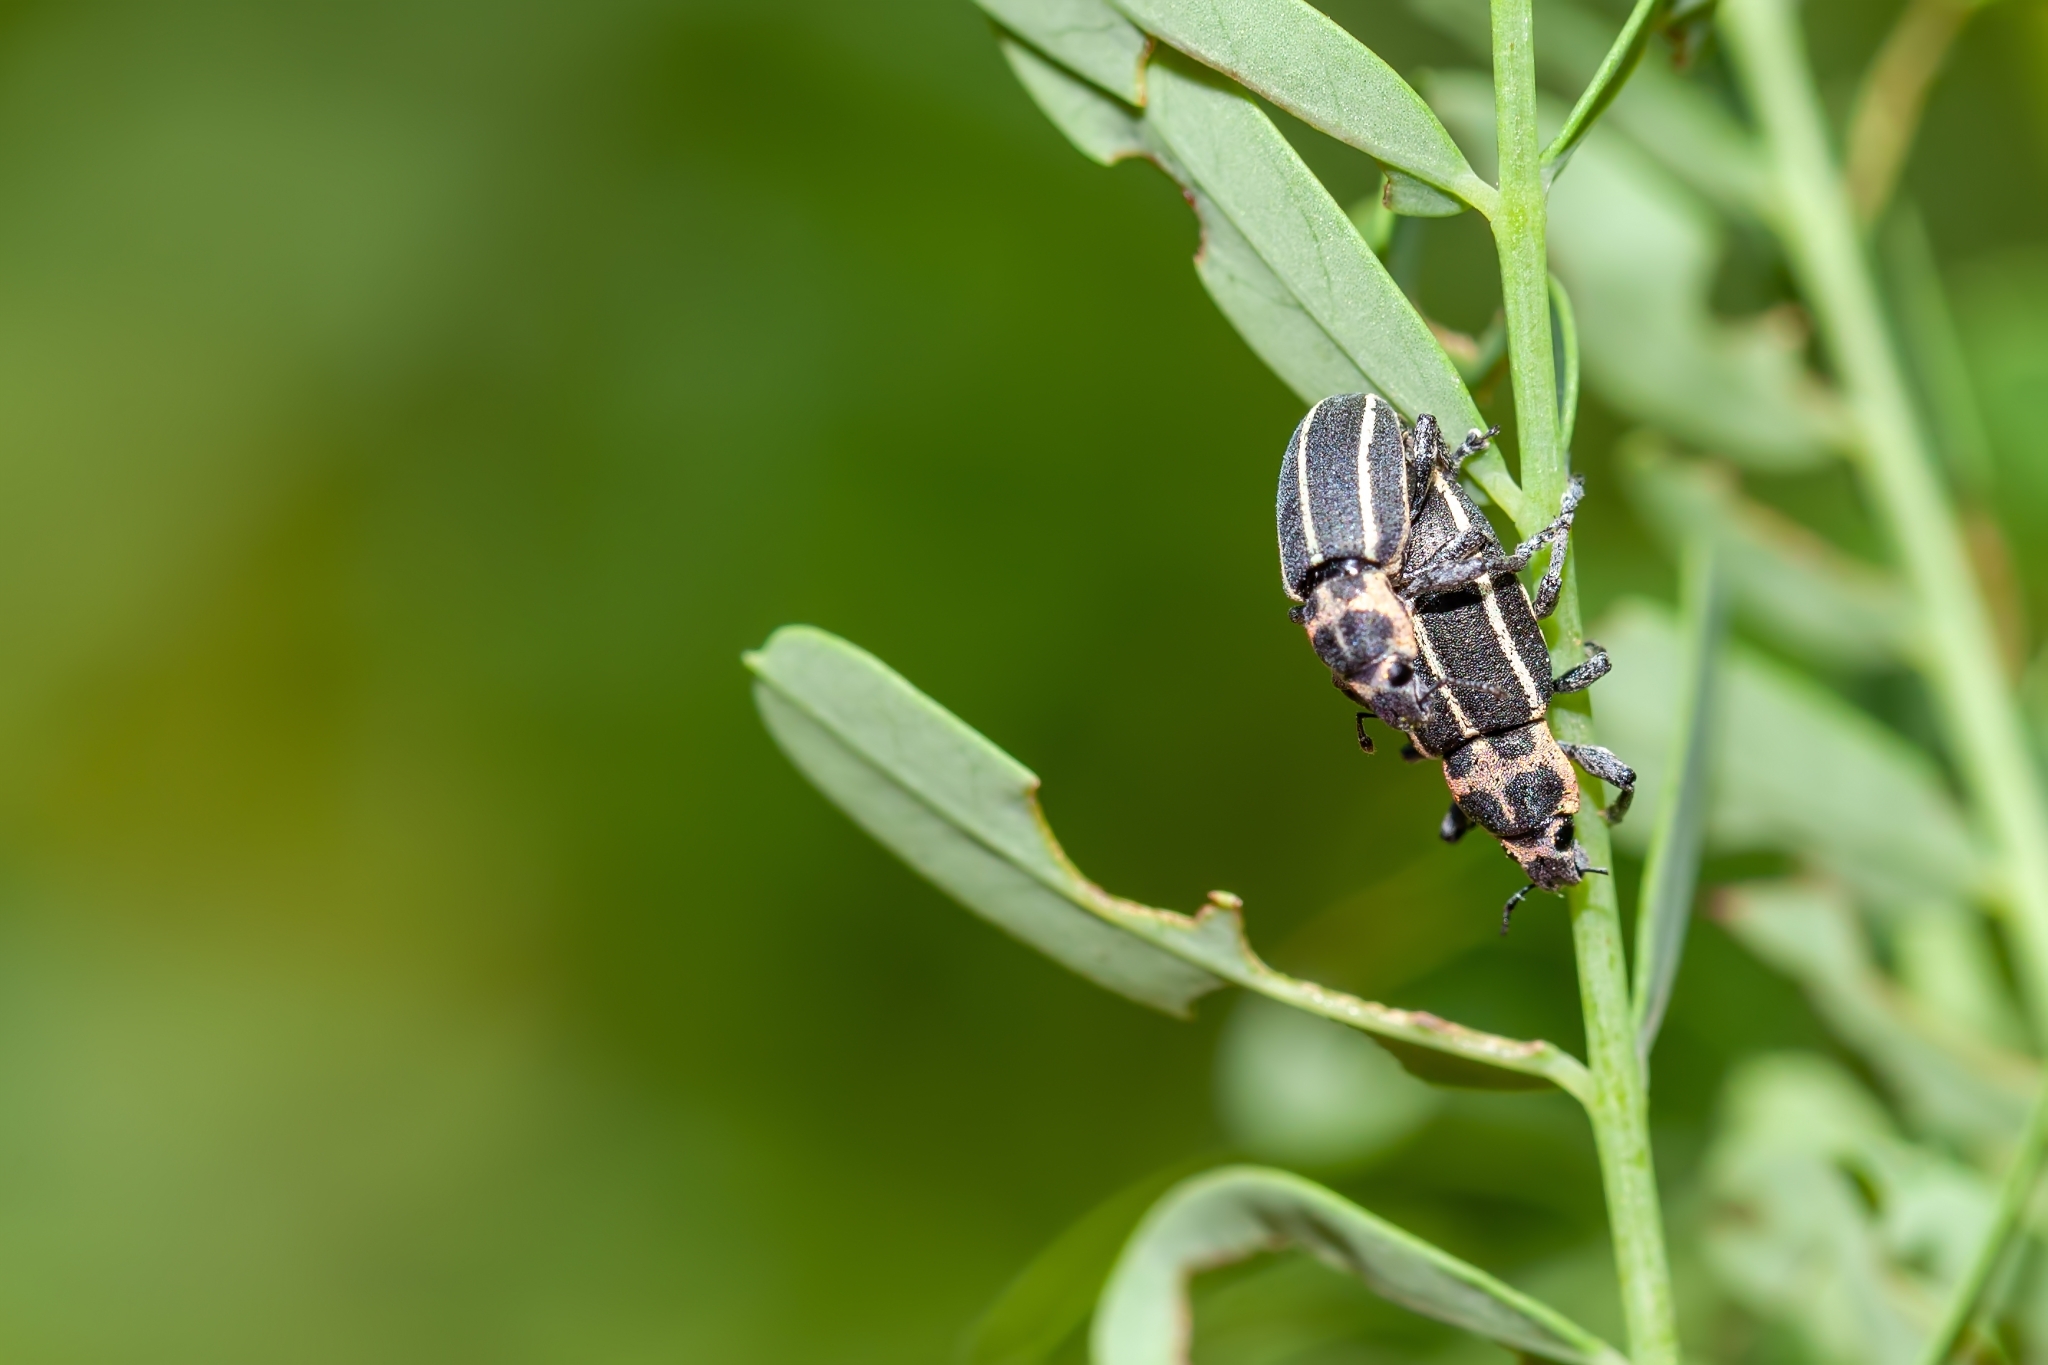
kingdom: Animalia
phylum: Arthropoda
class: Insecta
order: Coleoptera
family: Curculionidae
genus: Eudiagogus
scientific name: Eudiagogus maryae
